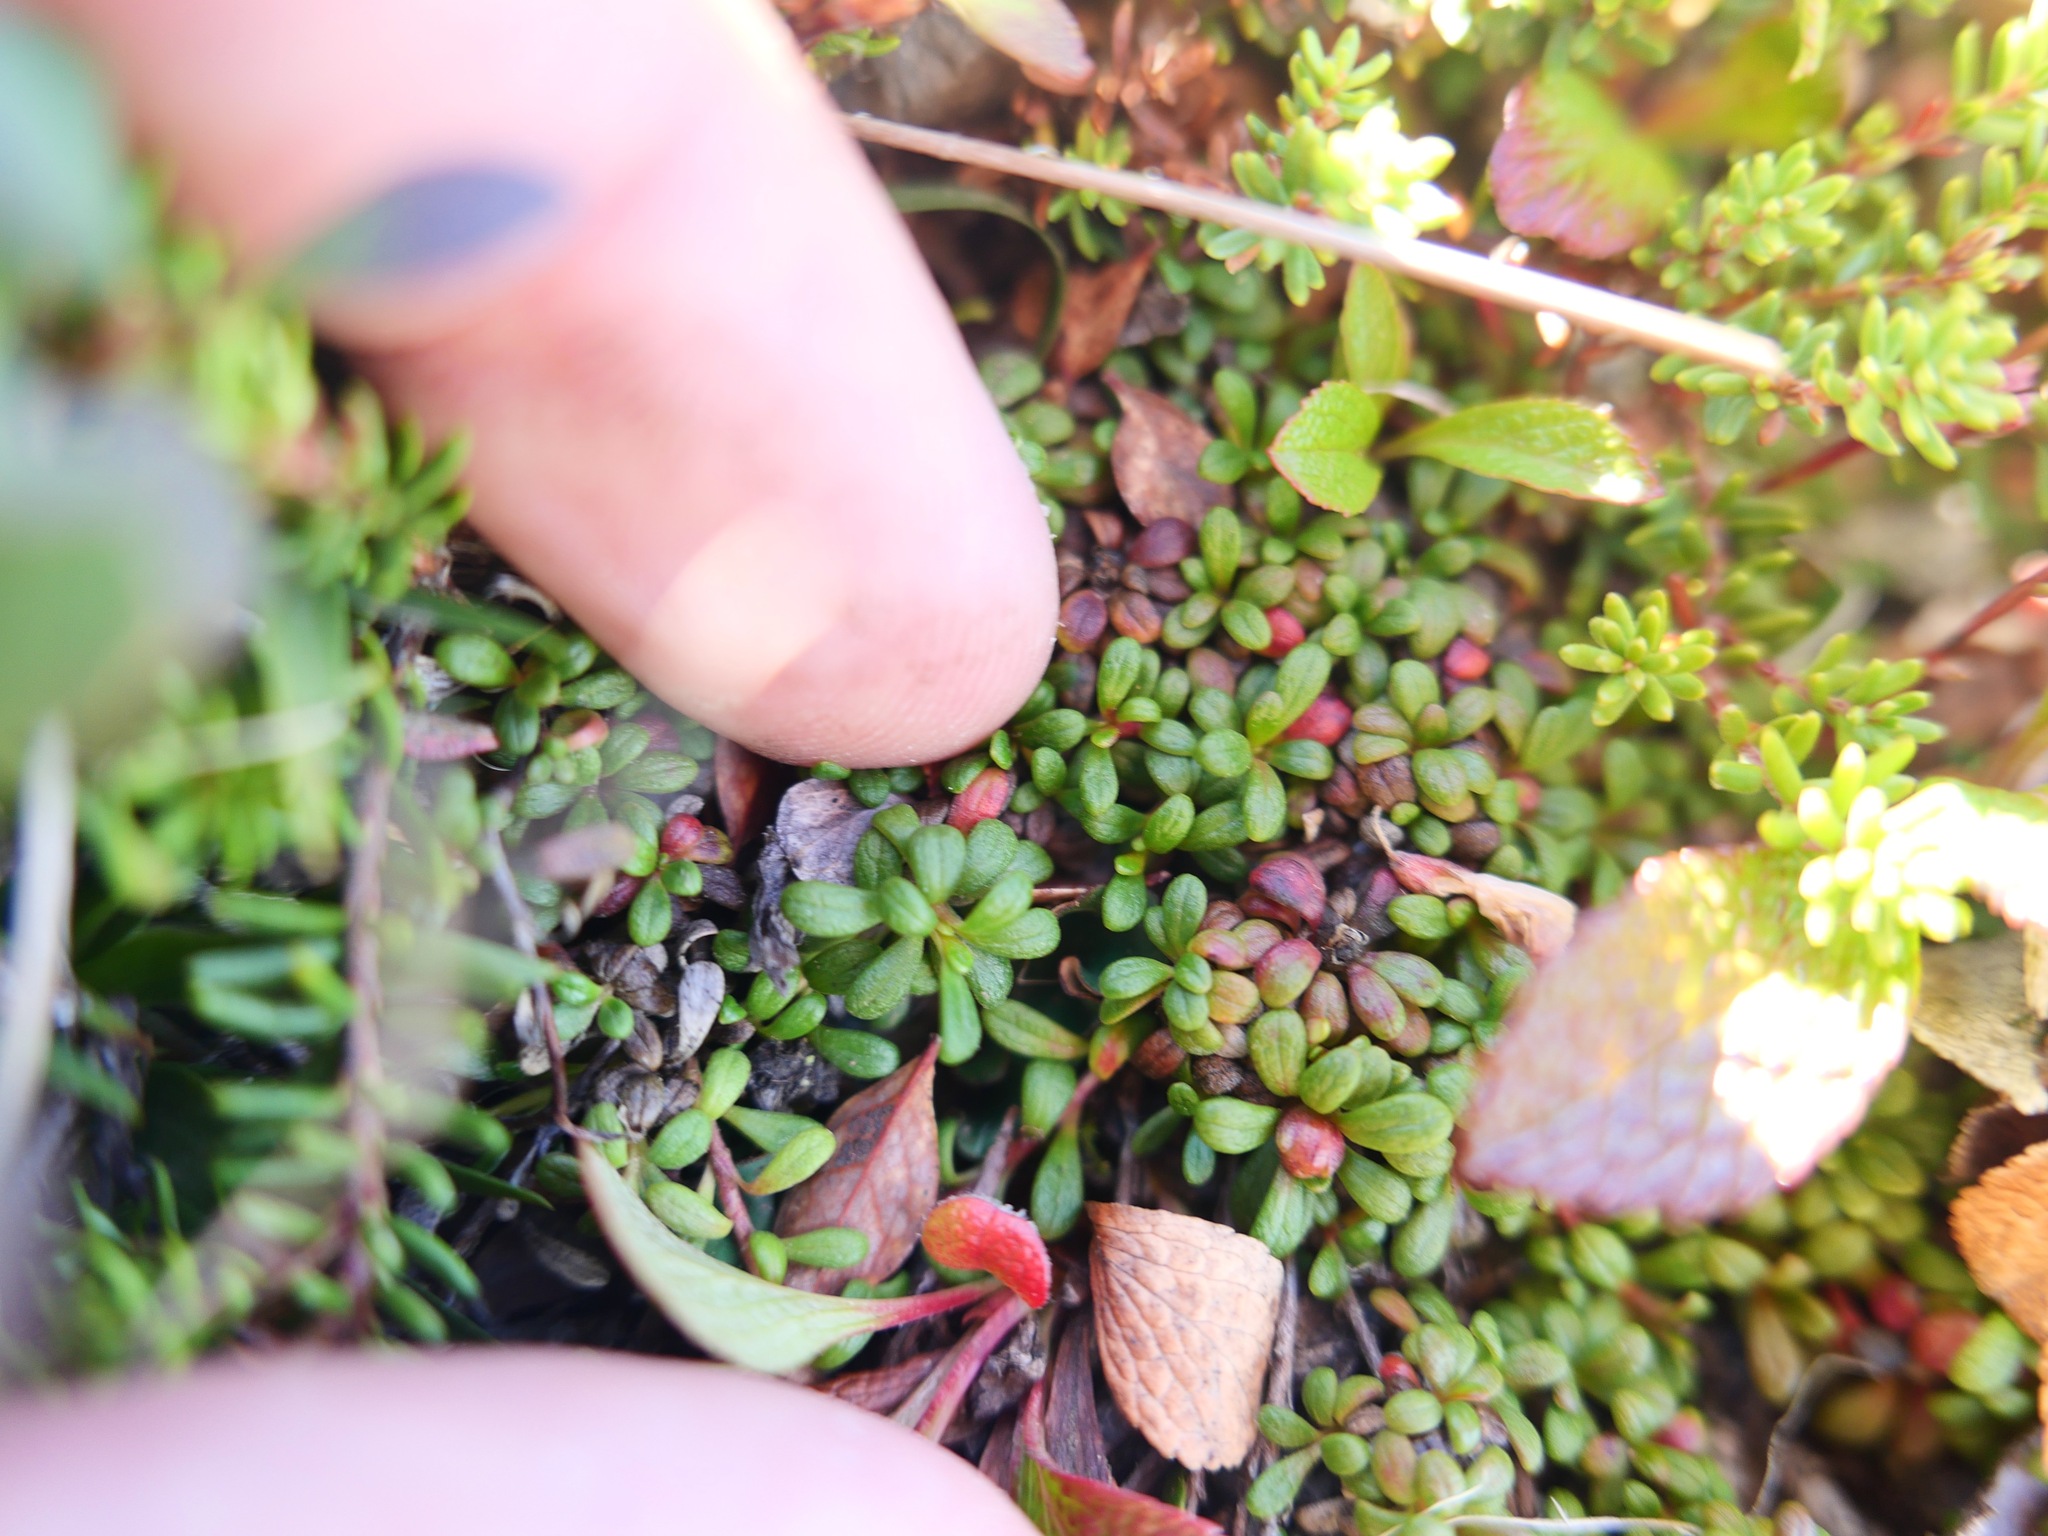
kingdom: Plantae
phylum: Tracheophyta
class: Magnoliopsida
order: Ericales
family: Diapensiaceae
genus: Diapensia
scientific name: Diapensia obovata
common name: Alaska diapensia
